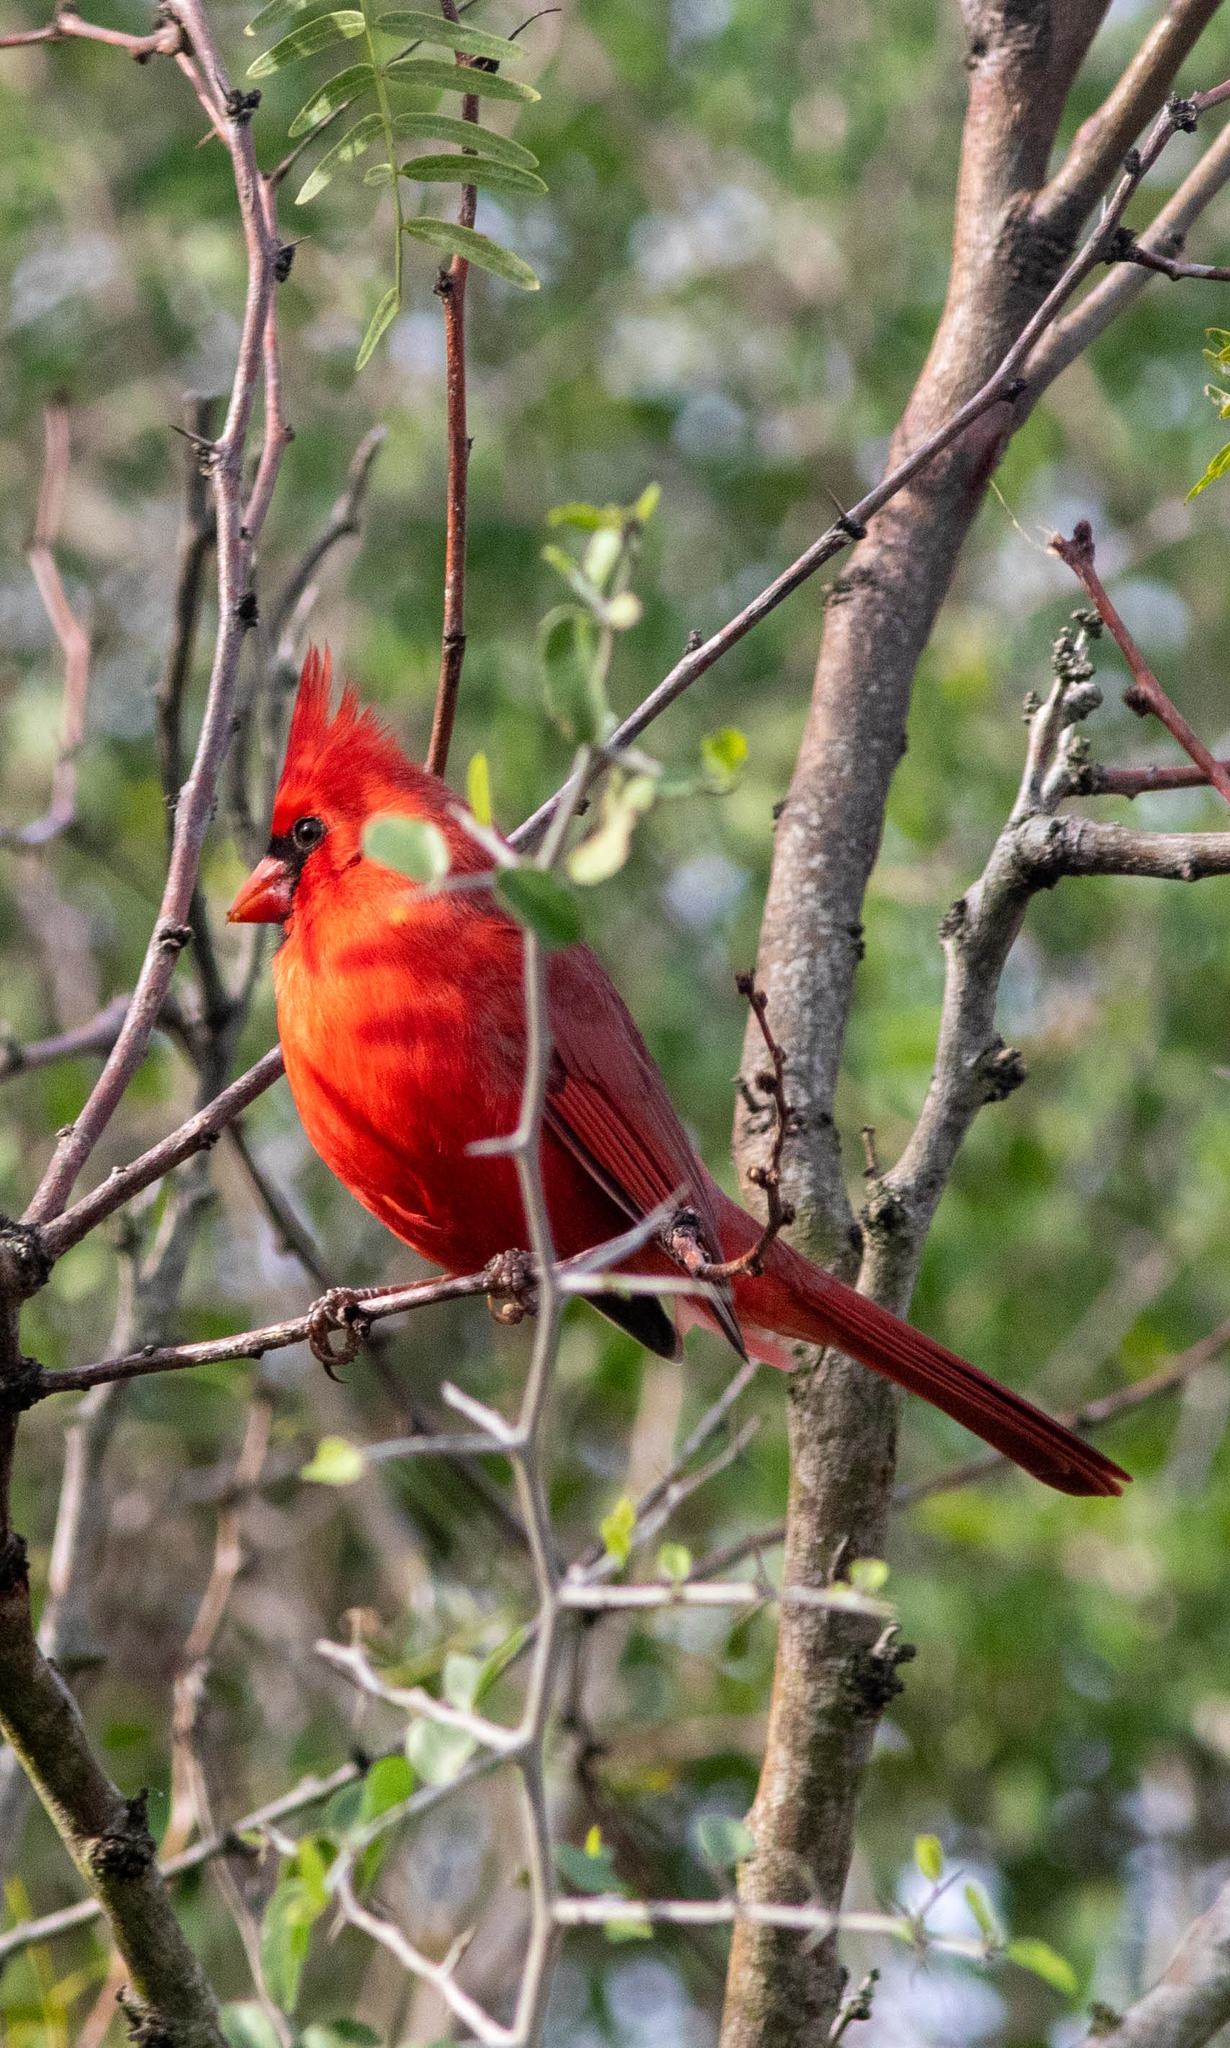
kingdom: Animalia
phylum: Chordata
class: Aves
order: Passeriformes
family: Cardinalidae
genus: Cardinalis
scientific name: Cardinalis cardinalis
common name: Northern cardinal
